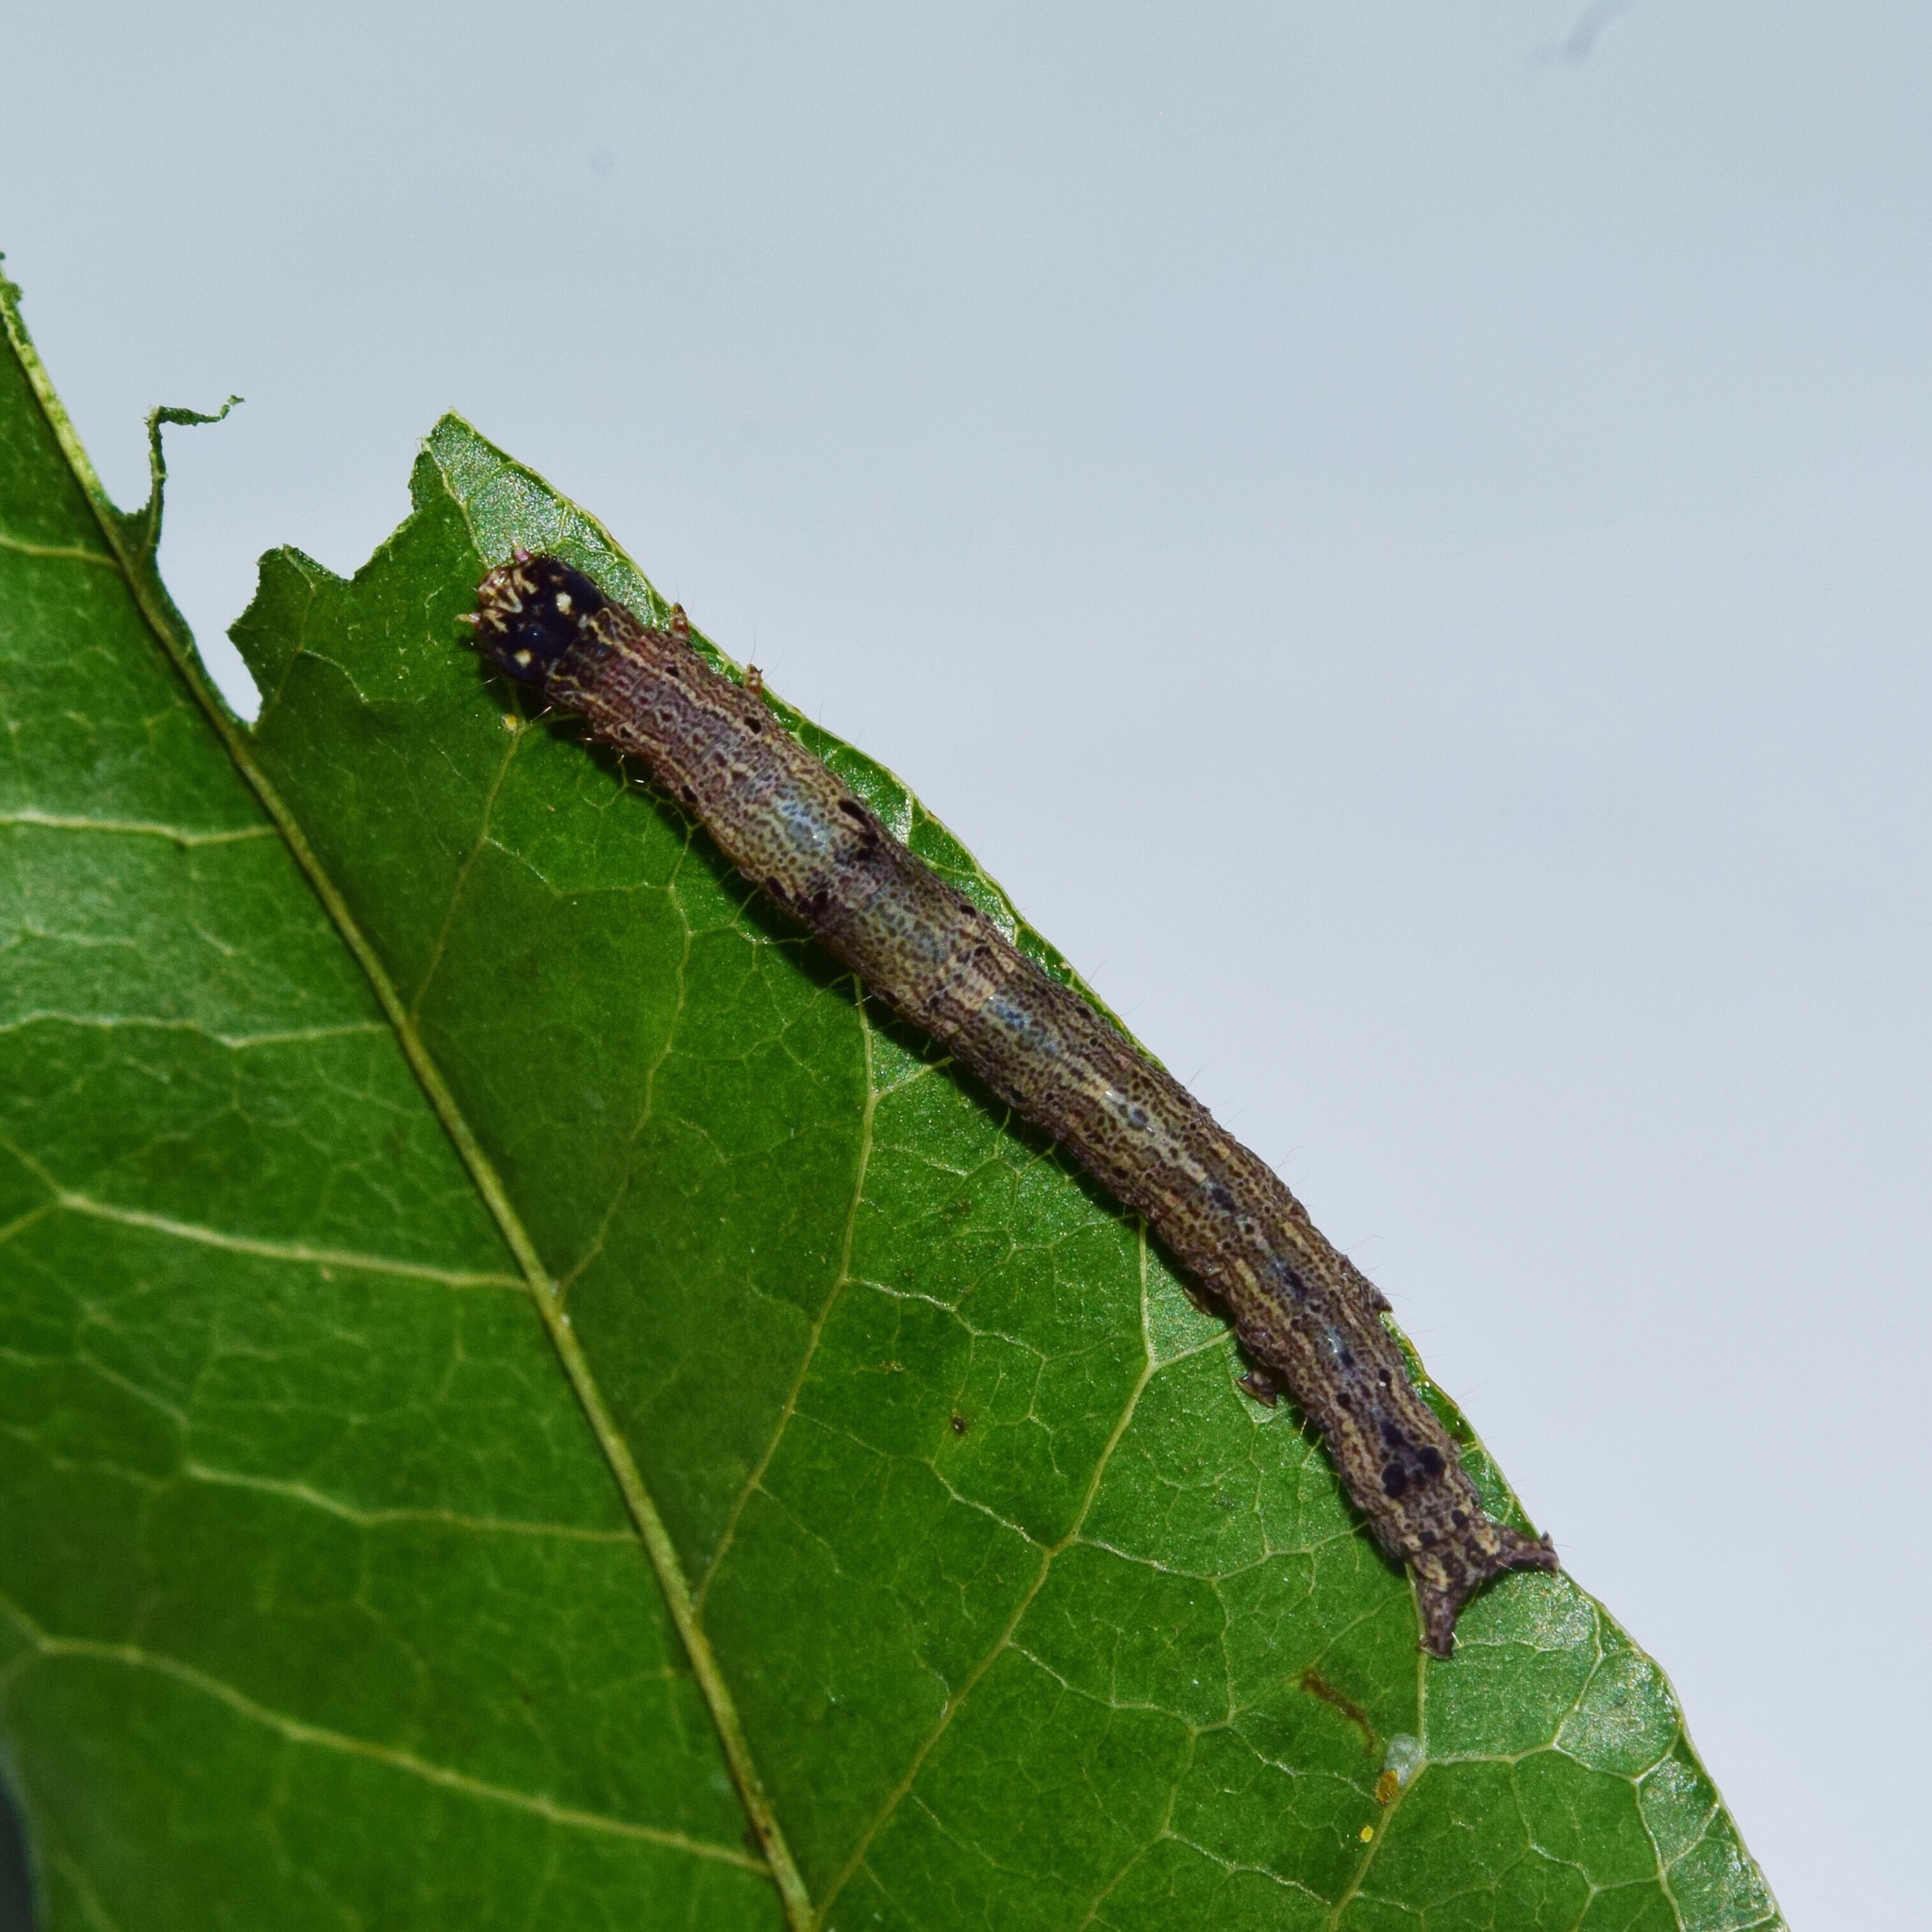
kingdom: Animalia
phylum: Arthropoda
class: Insecta
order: Lepidoptera
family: Erebidae
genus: Achaea
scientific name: Achaea echo
